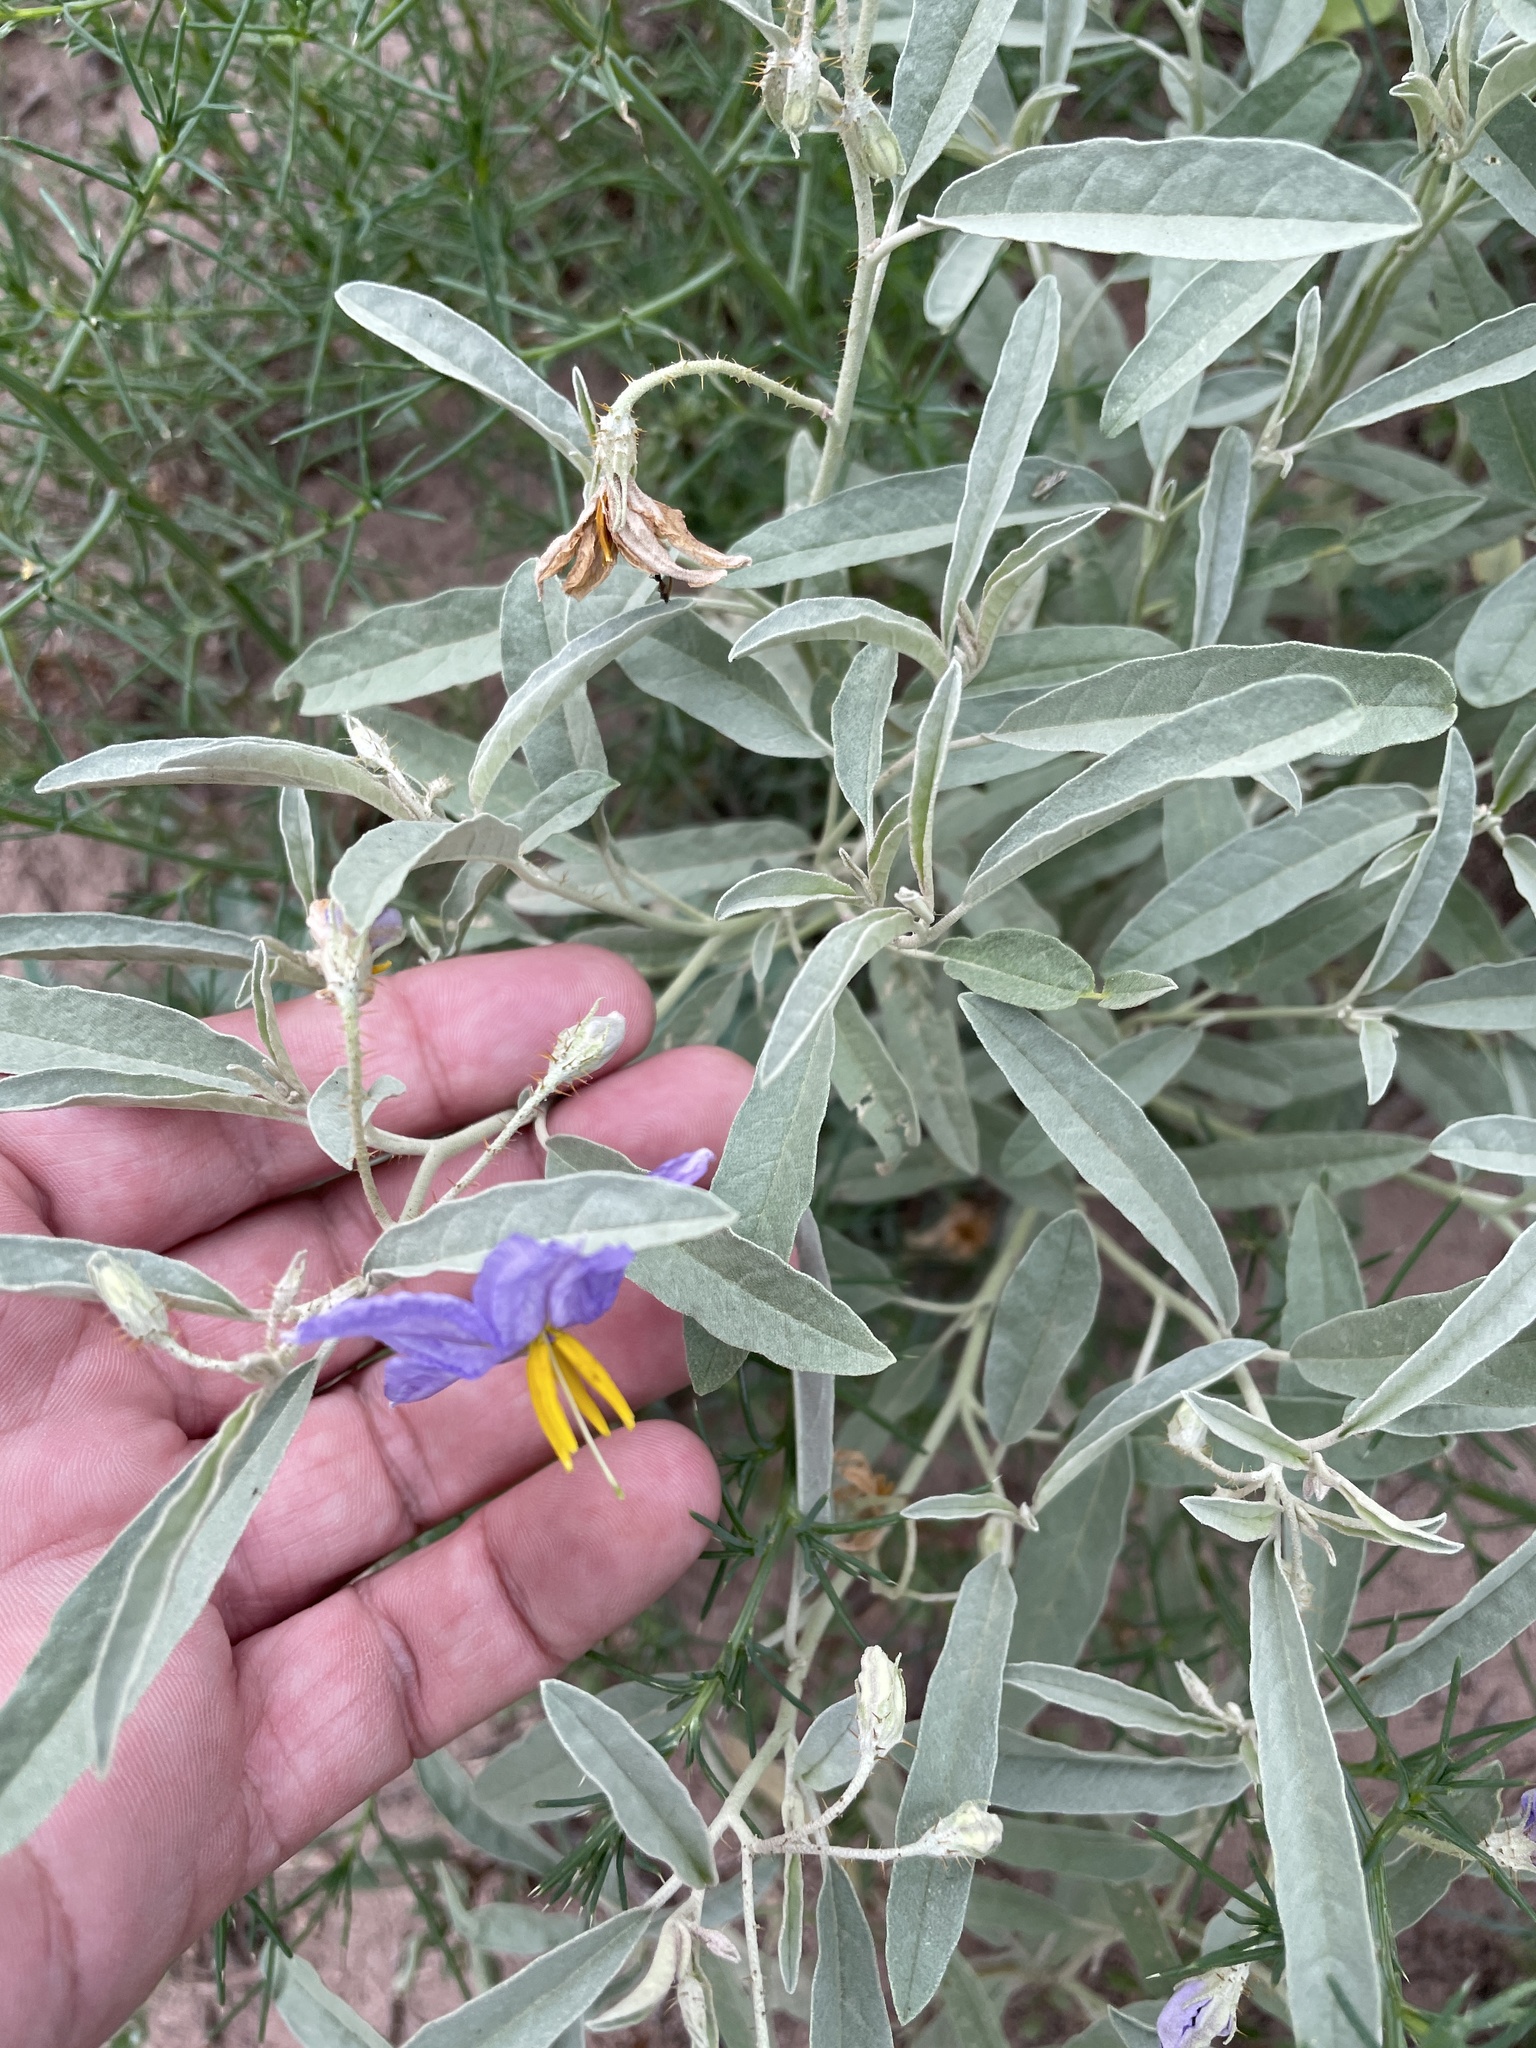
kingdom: Plantae
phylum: Tracheophyta
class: Magnoliopsida
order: Solanales
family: Solanaceae
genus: Solanum
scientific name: Solanum elaeagnifolium
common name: Silverleaf nightshade
